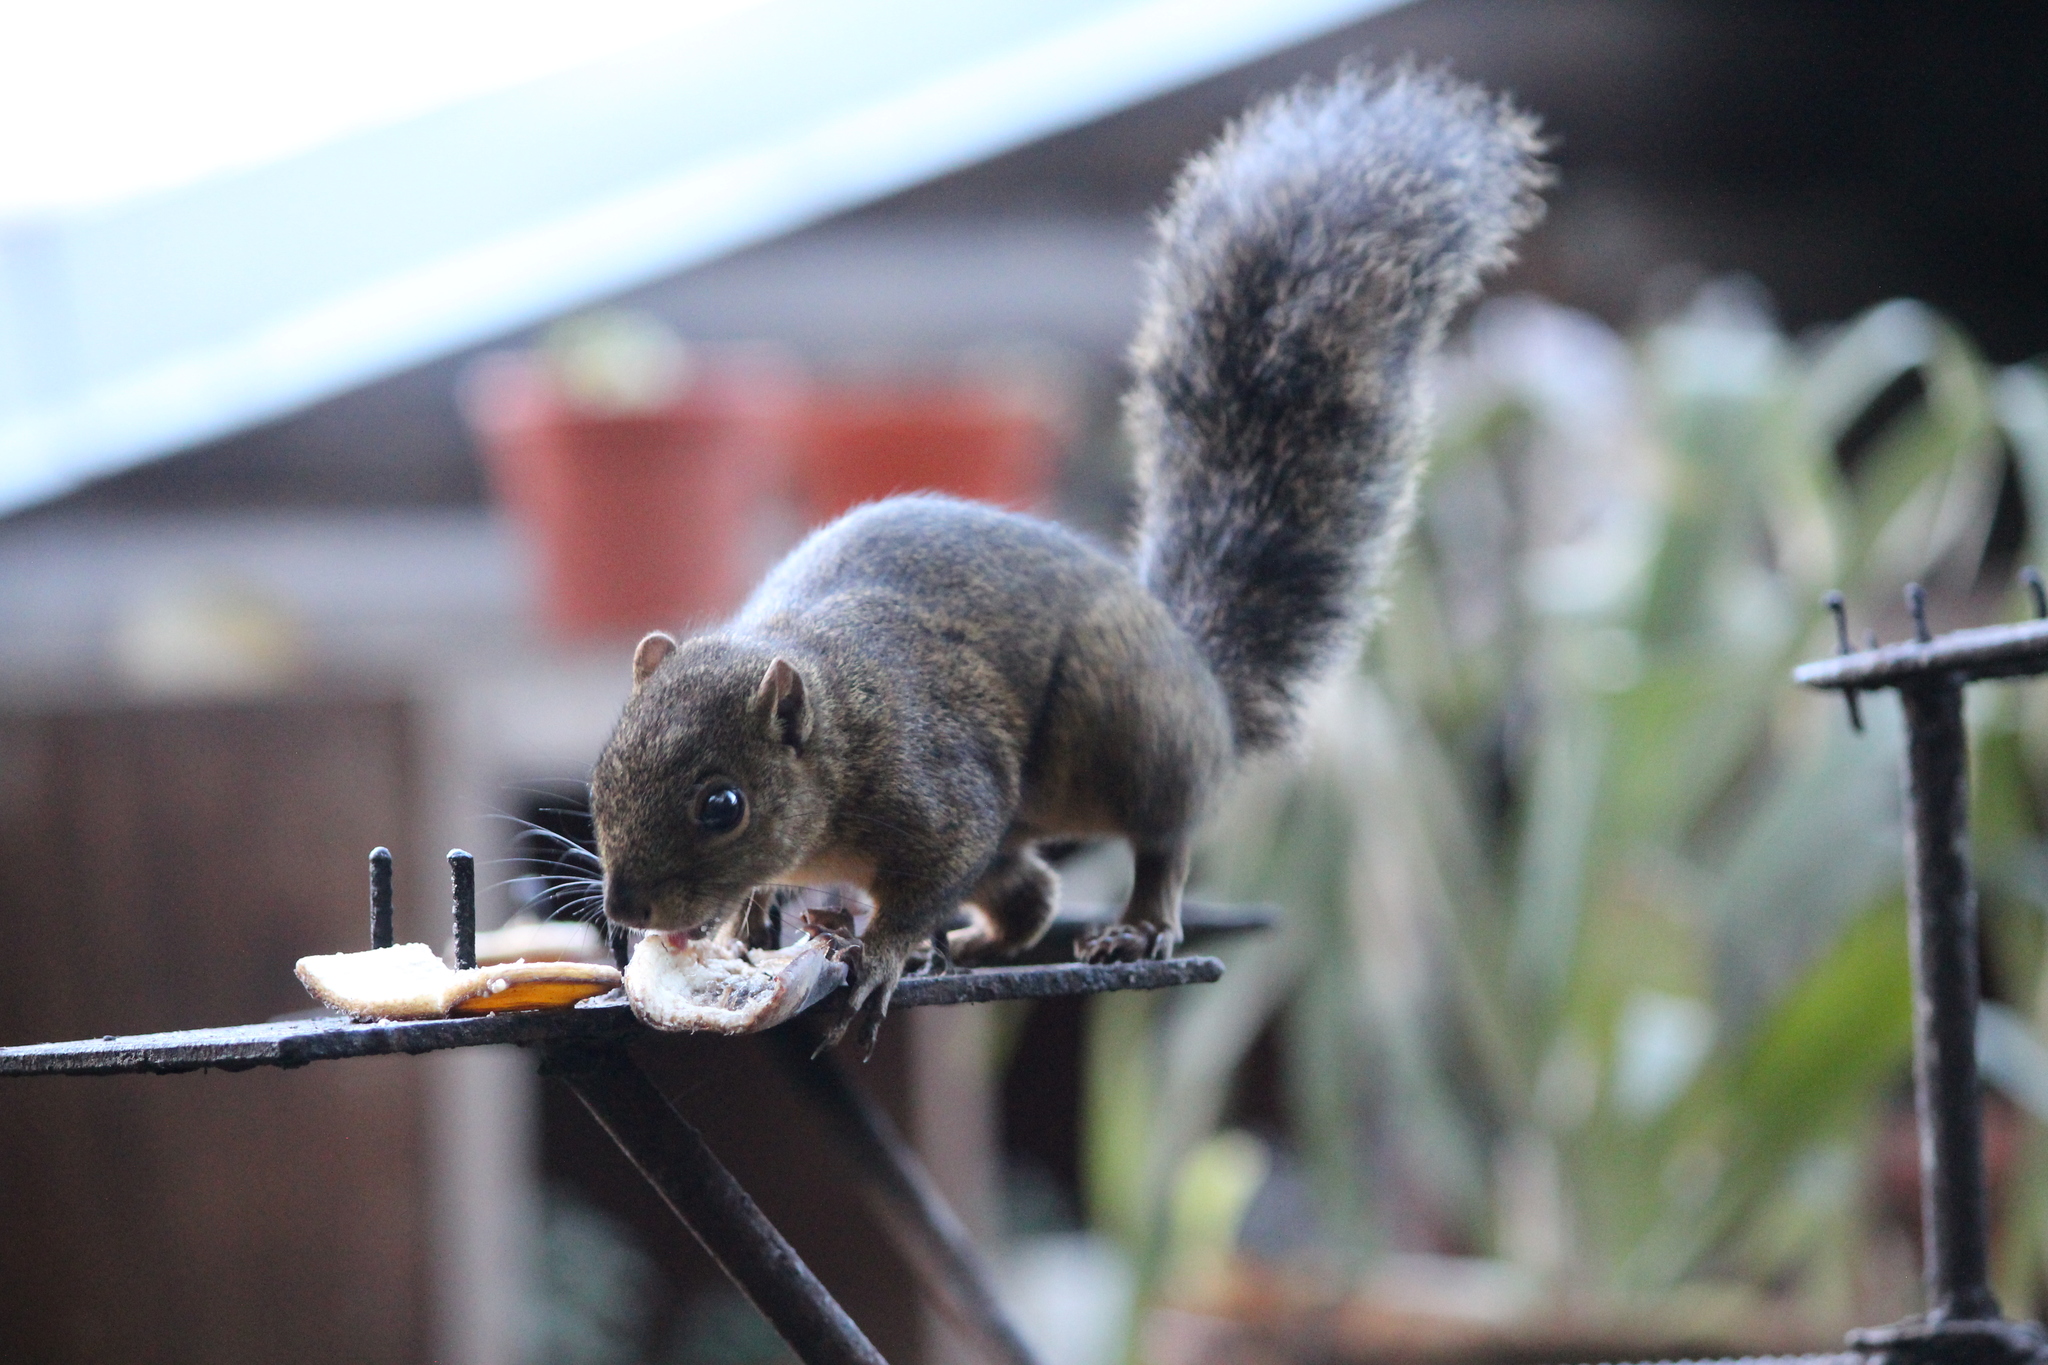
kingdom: Animalia
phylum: Chordata
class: Mammalia
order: Rodentia
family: Sciuridae
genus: Sciurus
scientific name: Sciurus granatensis
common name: Red-tailed squirrel
